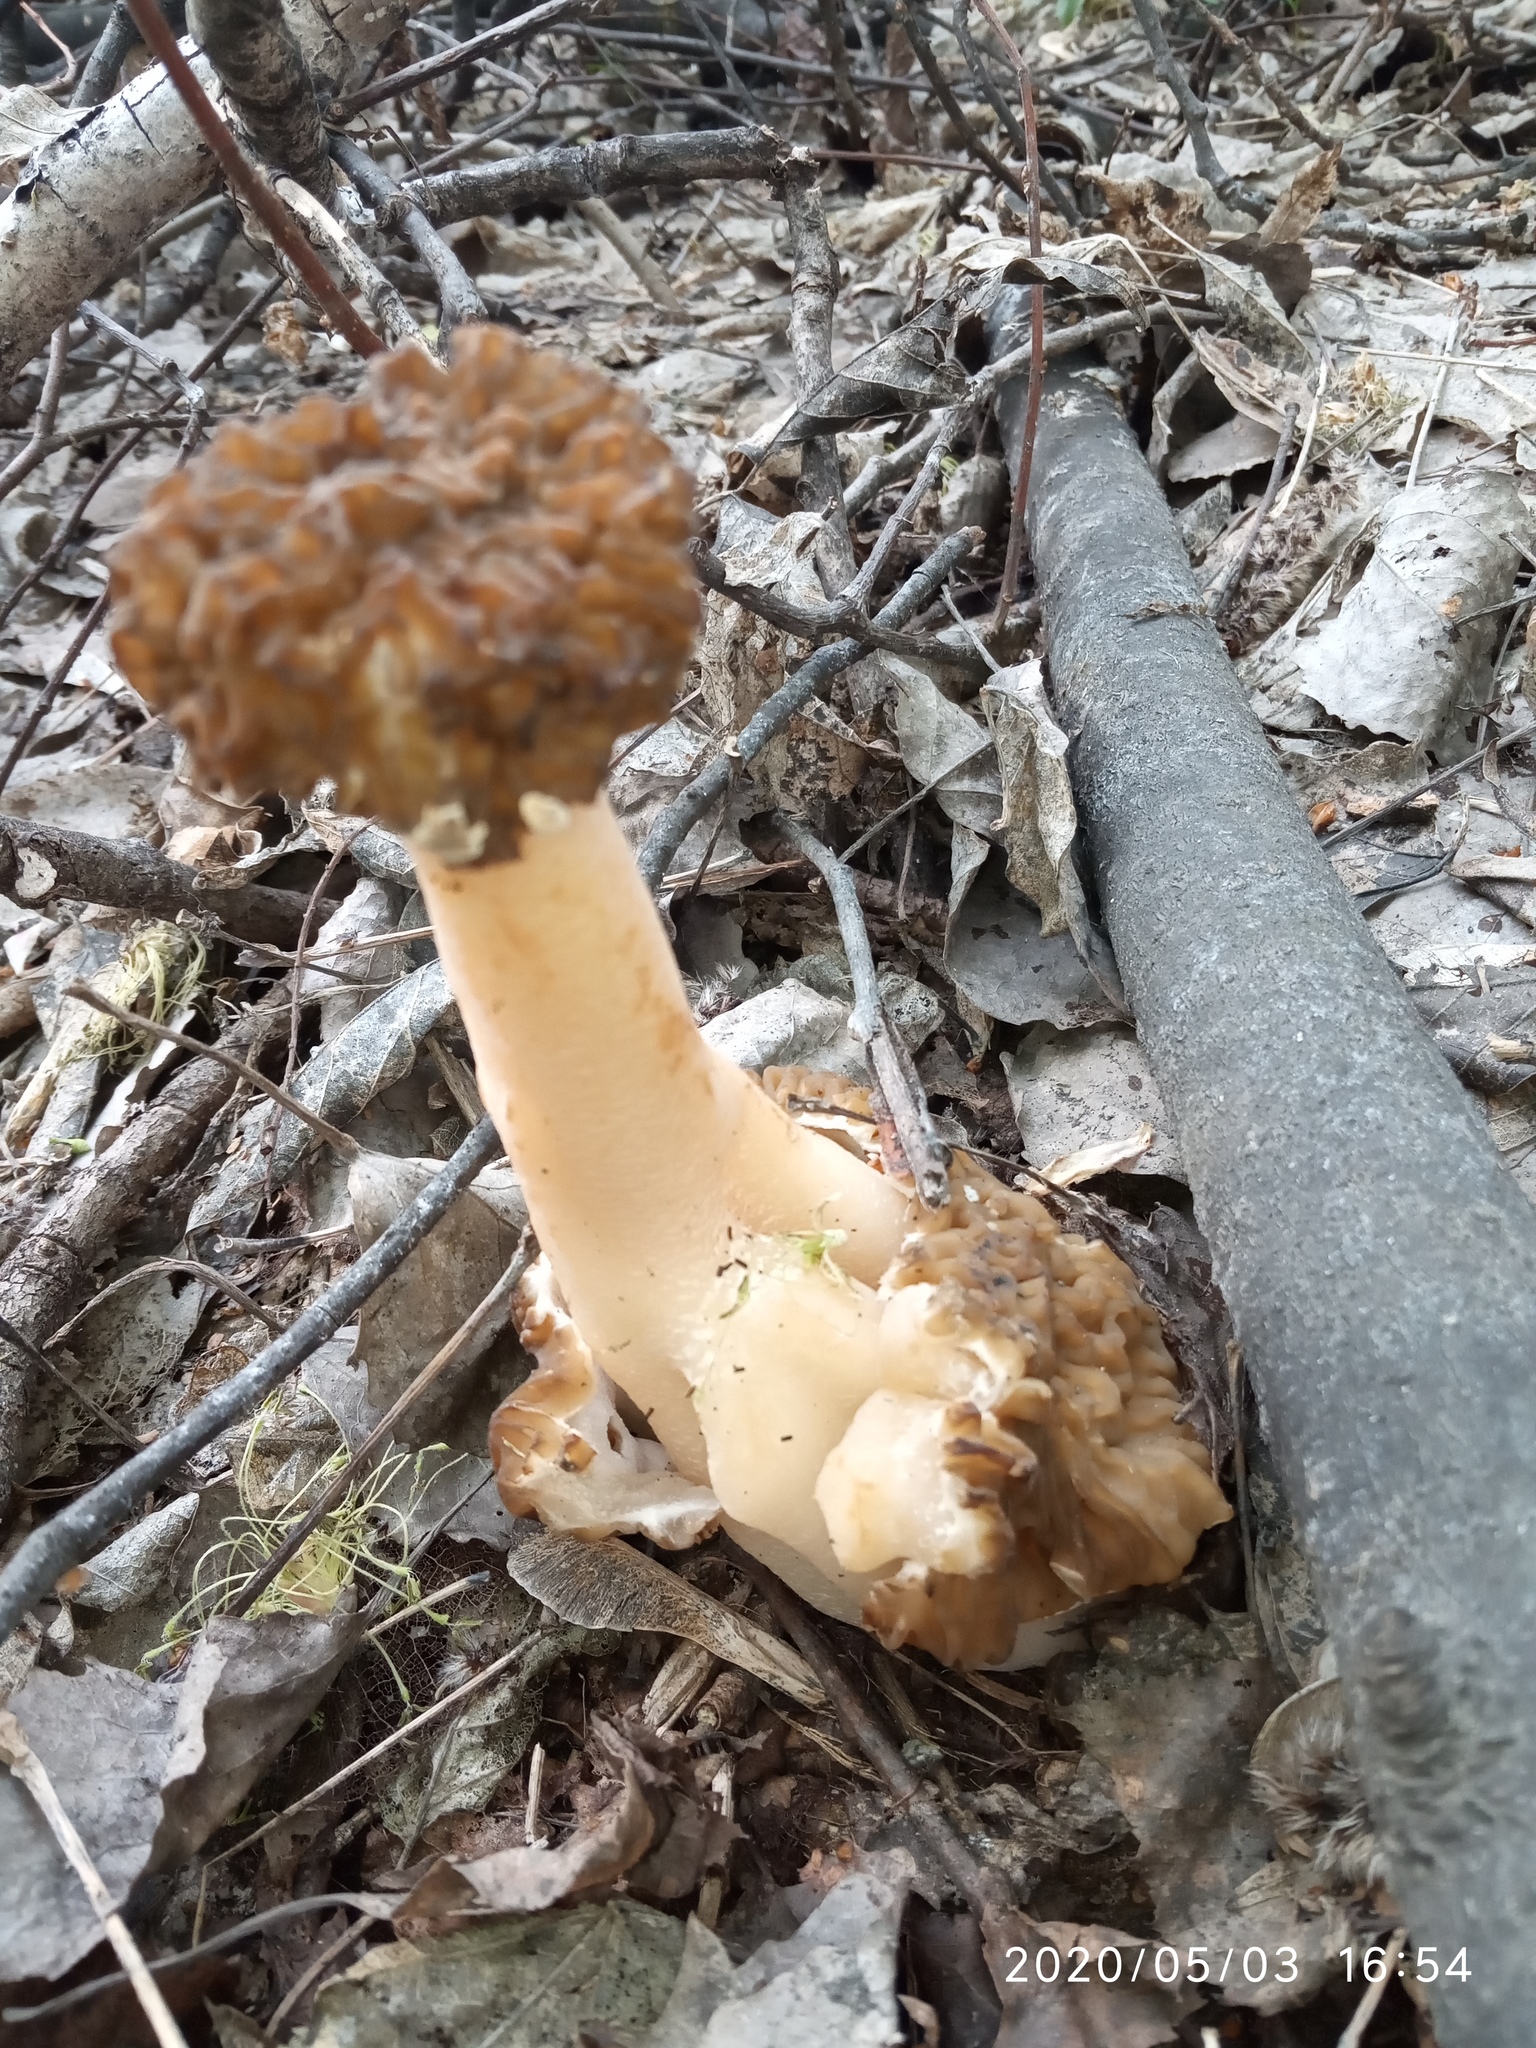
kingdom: Fungi
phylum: Ascomycota
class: Pezizomycetes
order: Pezizales
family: Morchellaceae
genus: Verpa
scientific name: Verpa bohemica
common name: Wrinkled thimble morel
